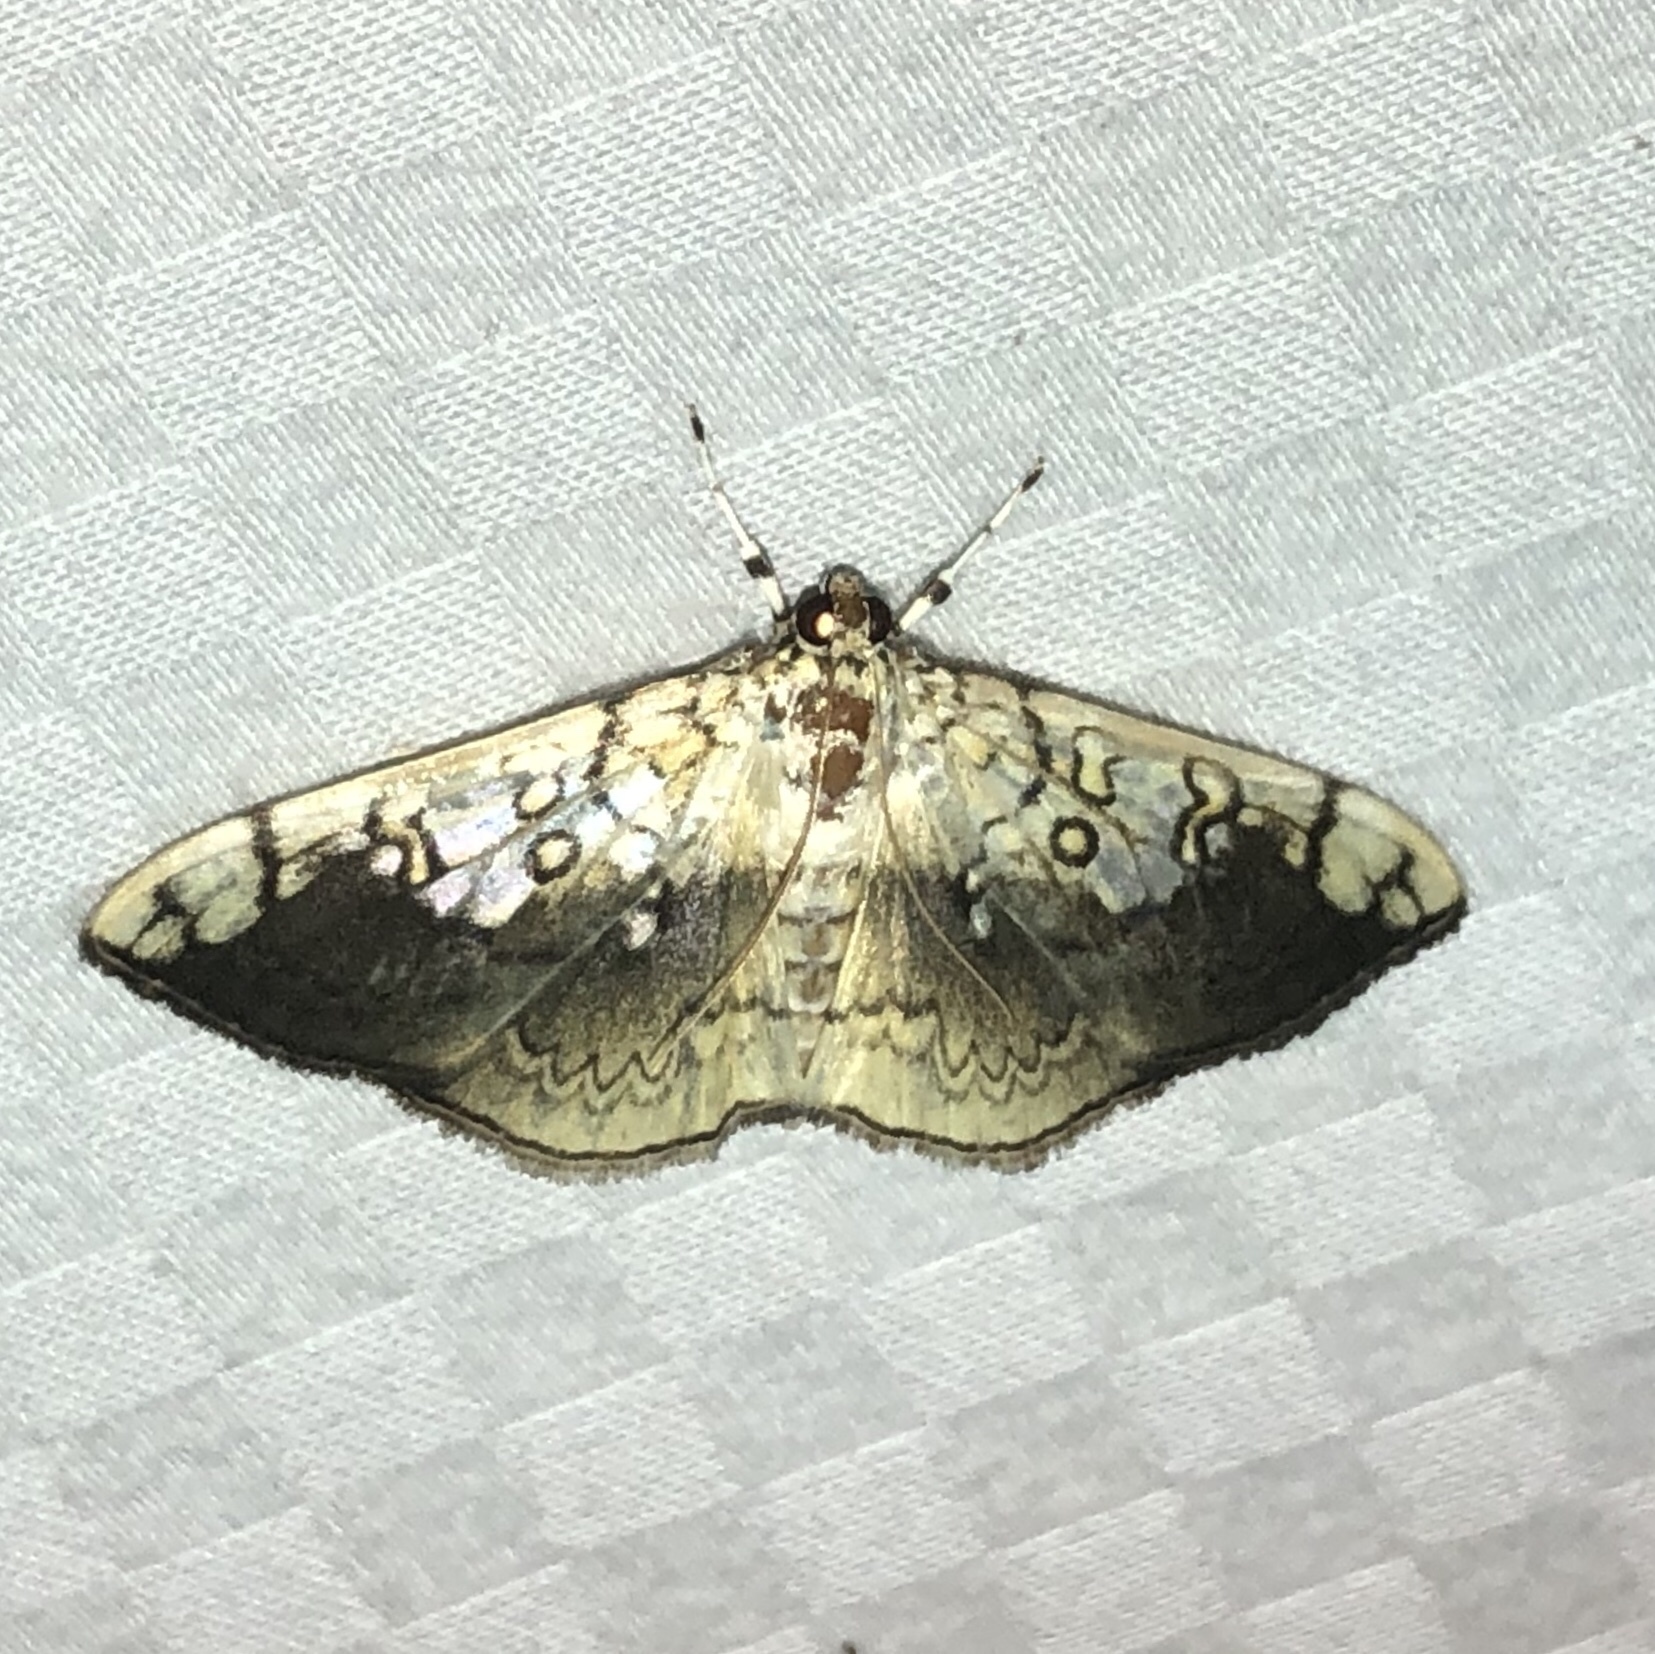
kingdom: Animalia
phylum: Arthropoda
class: Insecta
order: Lepidoptera
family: Crambidae
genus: Pantographa
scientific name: Pantographa limata
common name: Basswood leafroller moth
